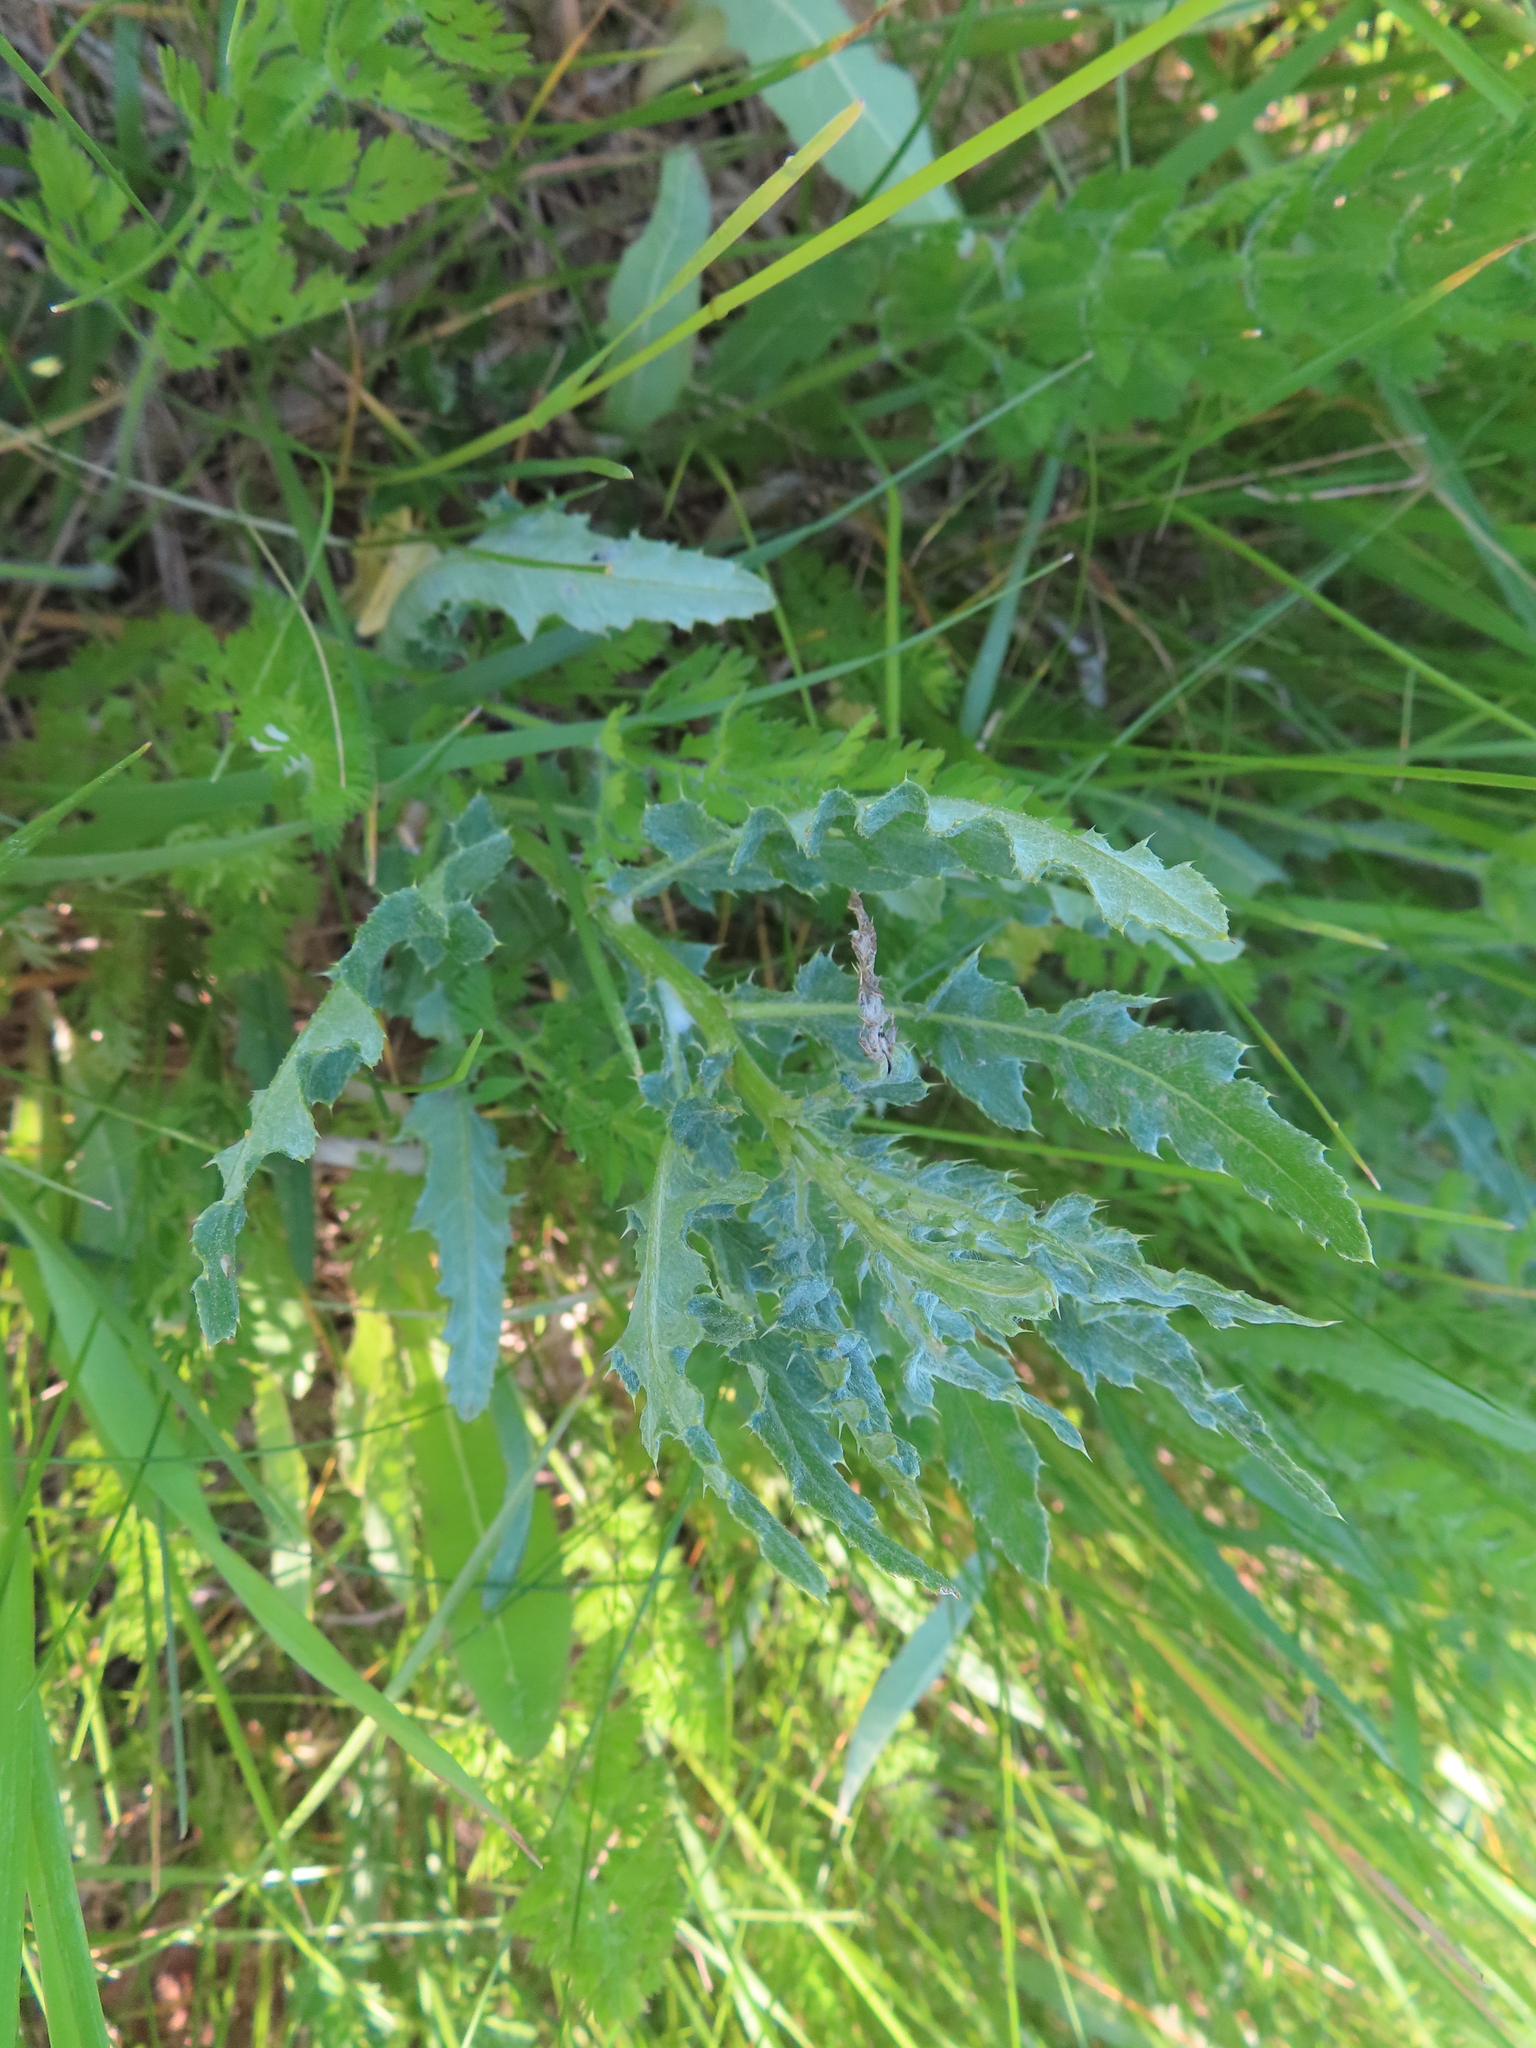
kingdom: Plantae
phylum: Tracheophyta
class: Magnoliopsida
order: Asterales
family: Asteraceae
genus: Cirsium
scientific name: Cirsium arvense
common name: Creeping thistle
